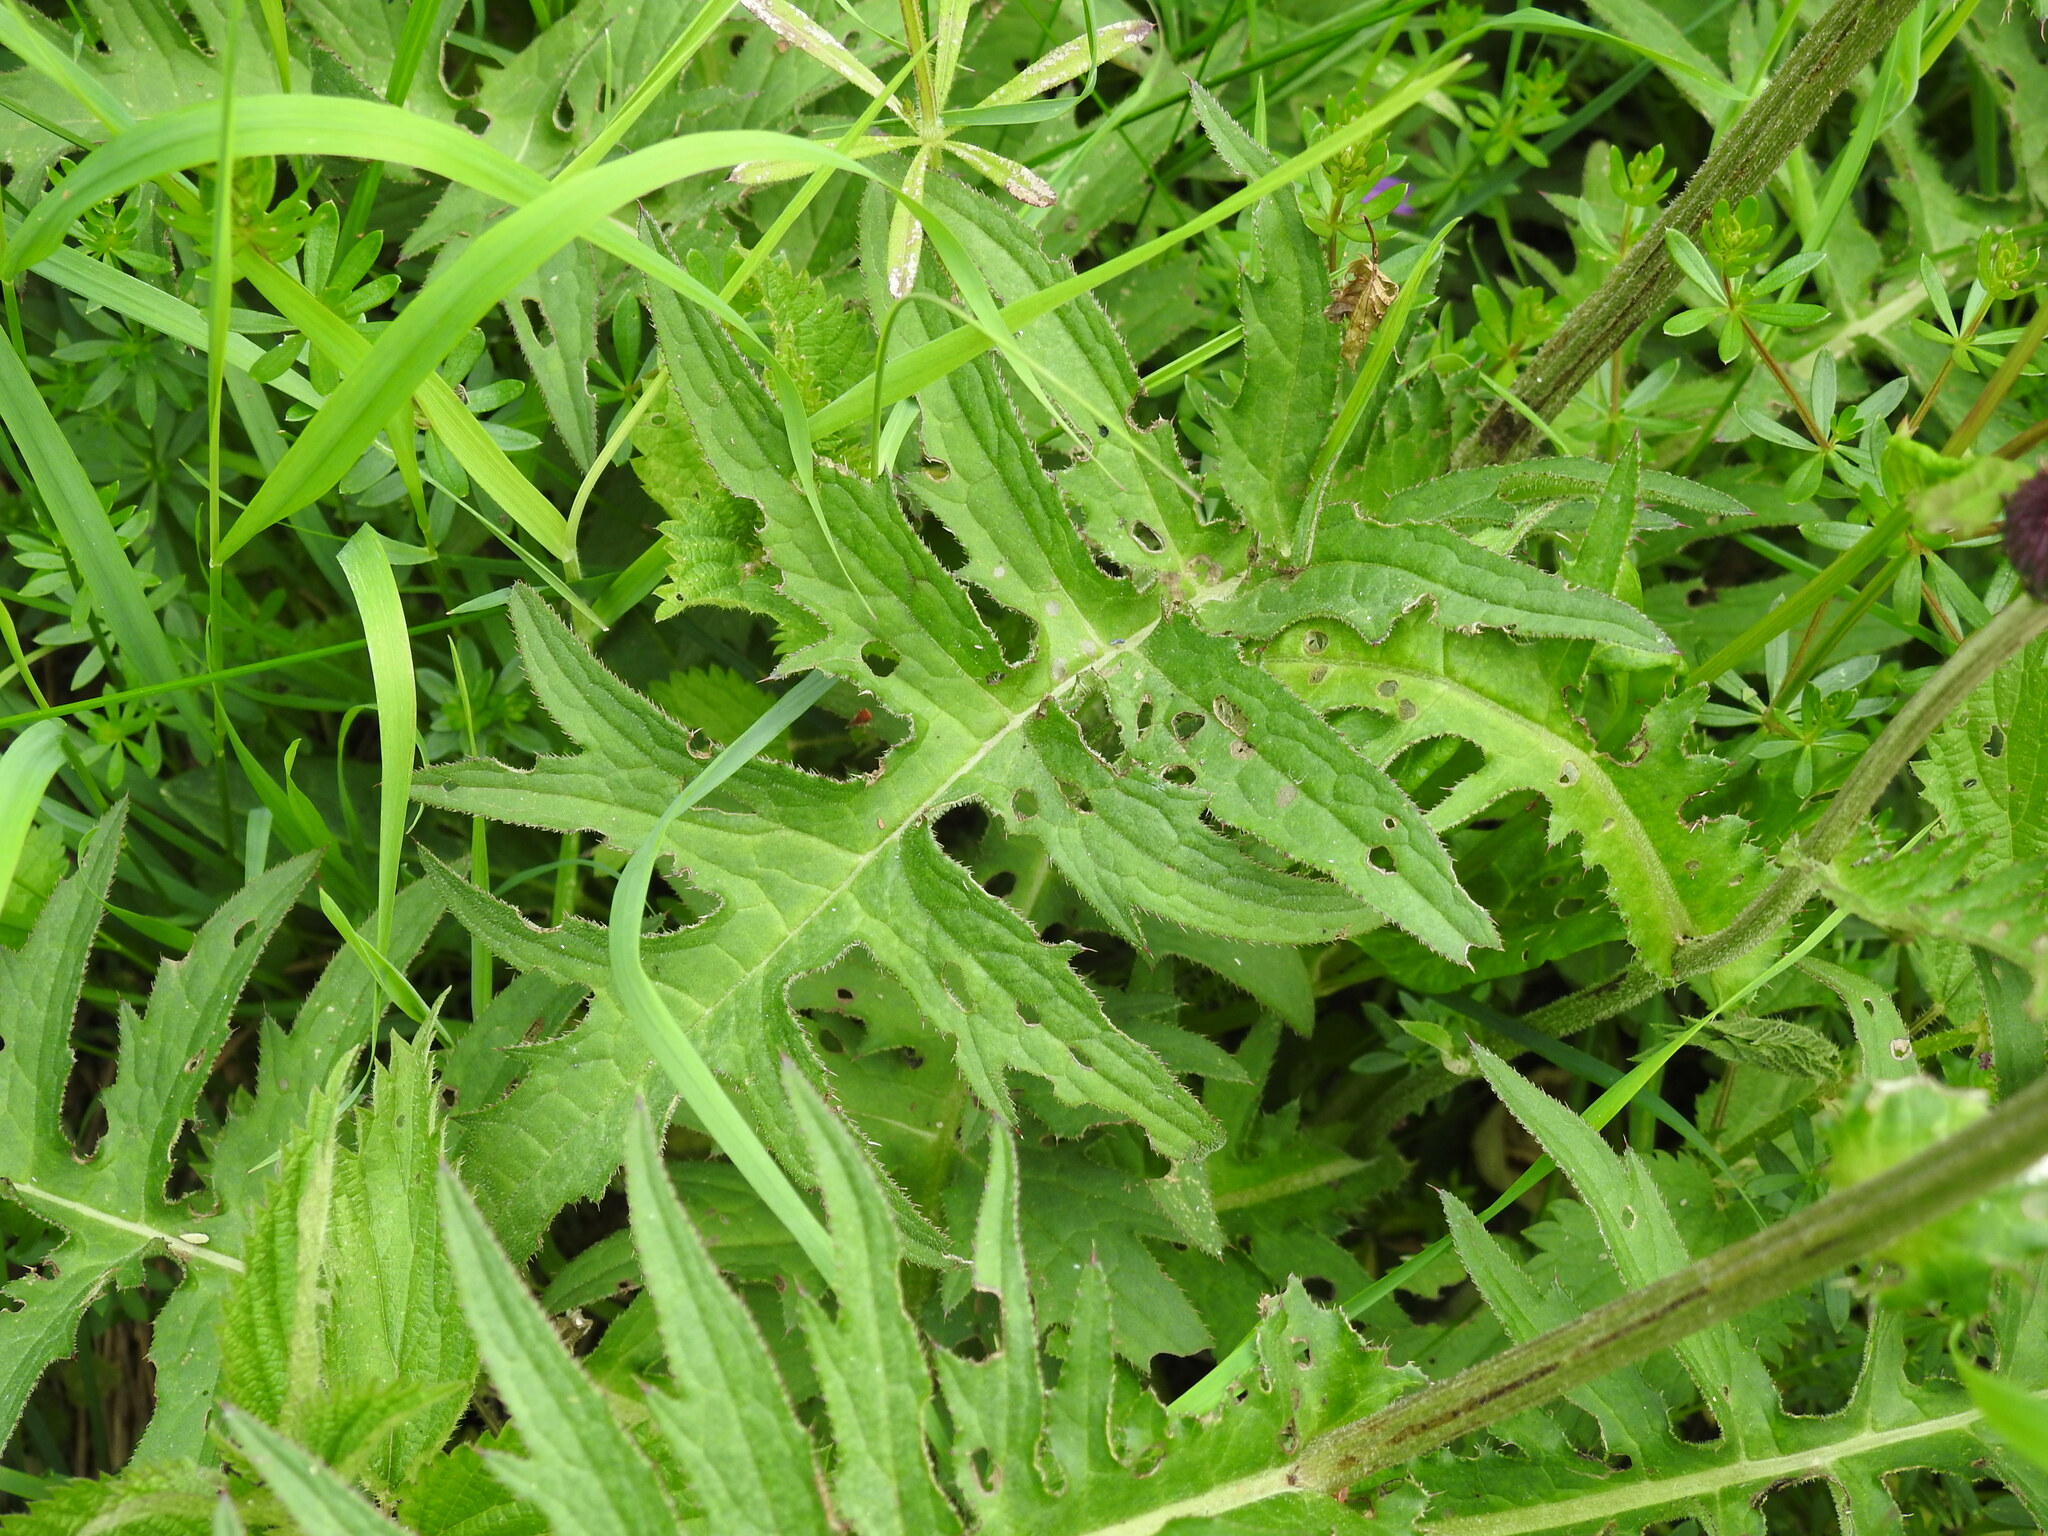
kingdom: Plantae
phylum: Tracheophyta
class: Magnoliopsida
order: Asterales
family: Asteraceae
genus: Cirsium
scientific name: Cirsium rivulare
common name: Brook thistle
